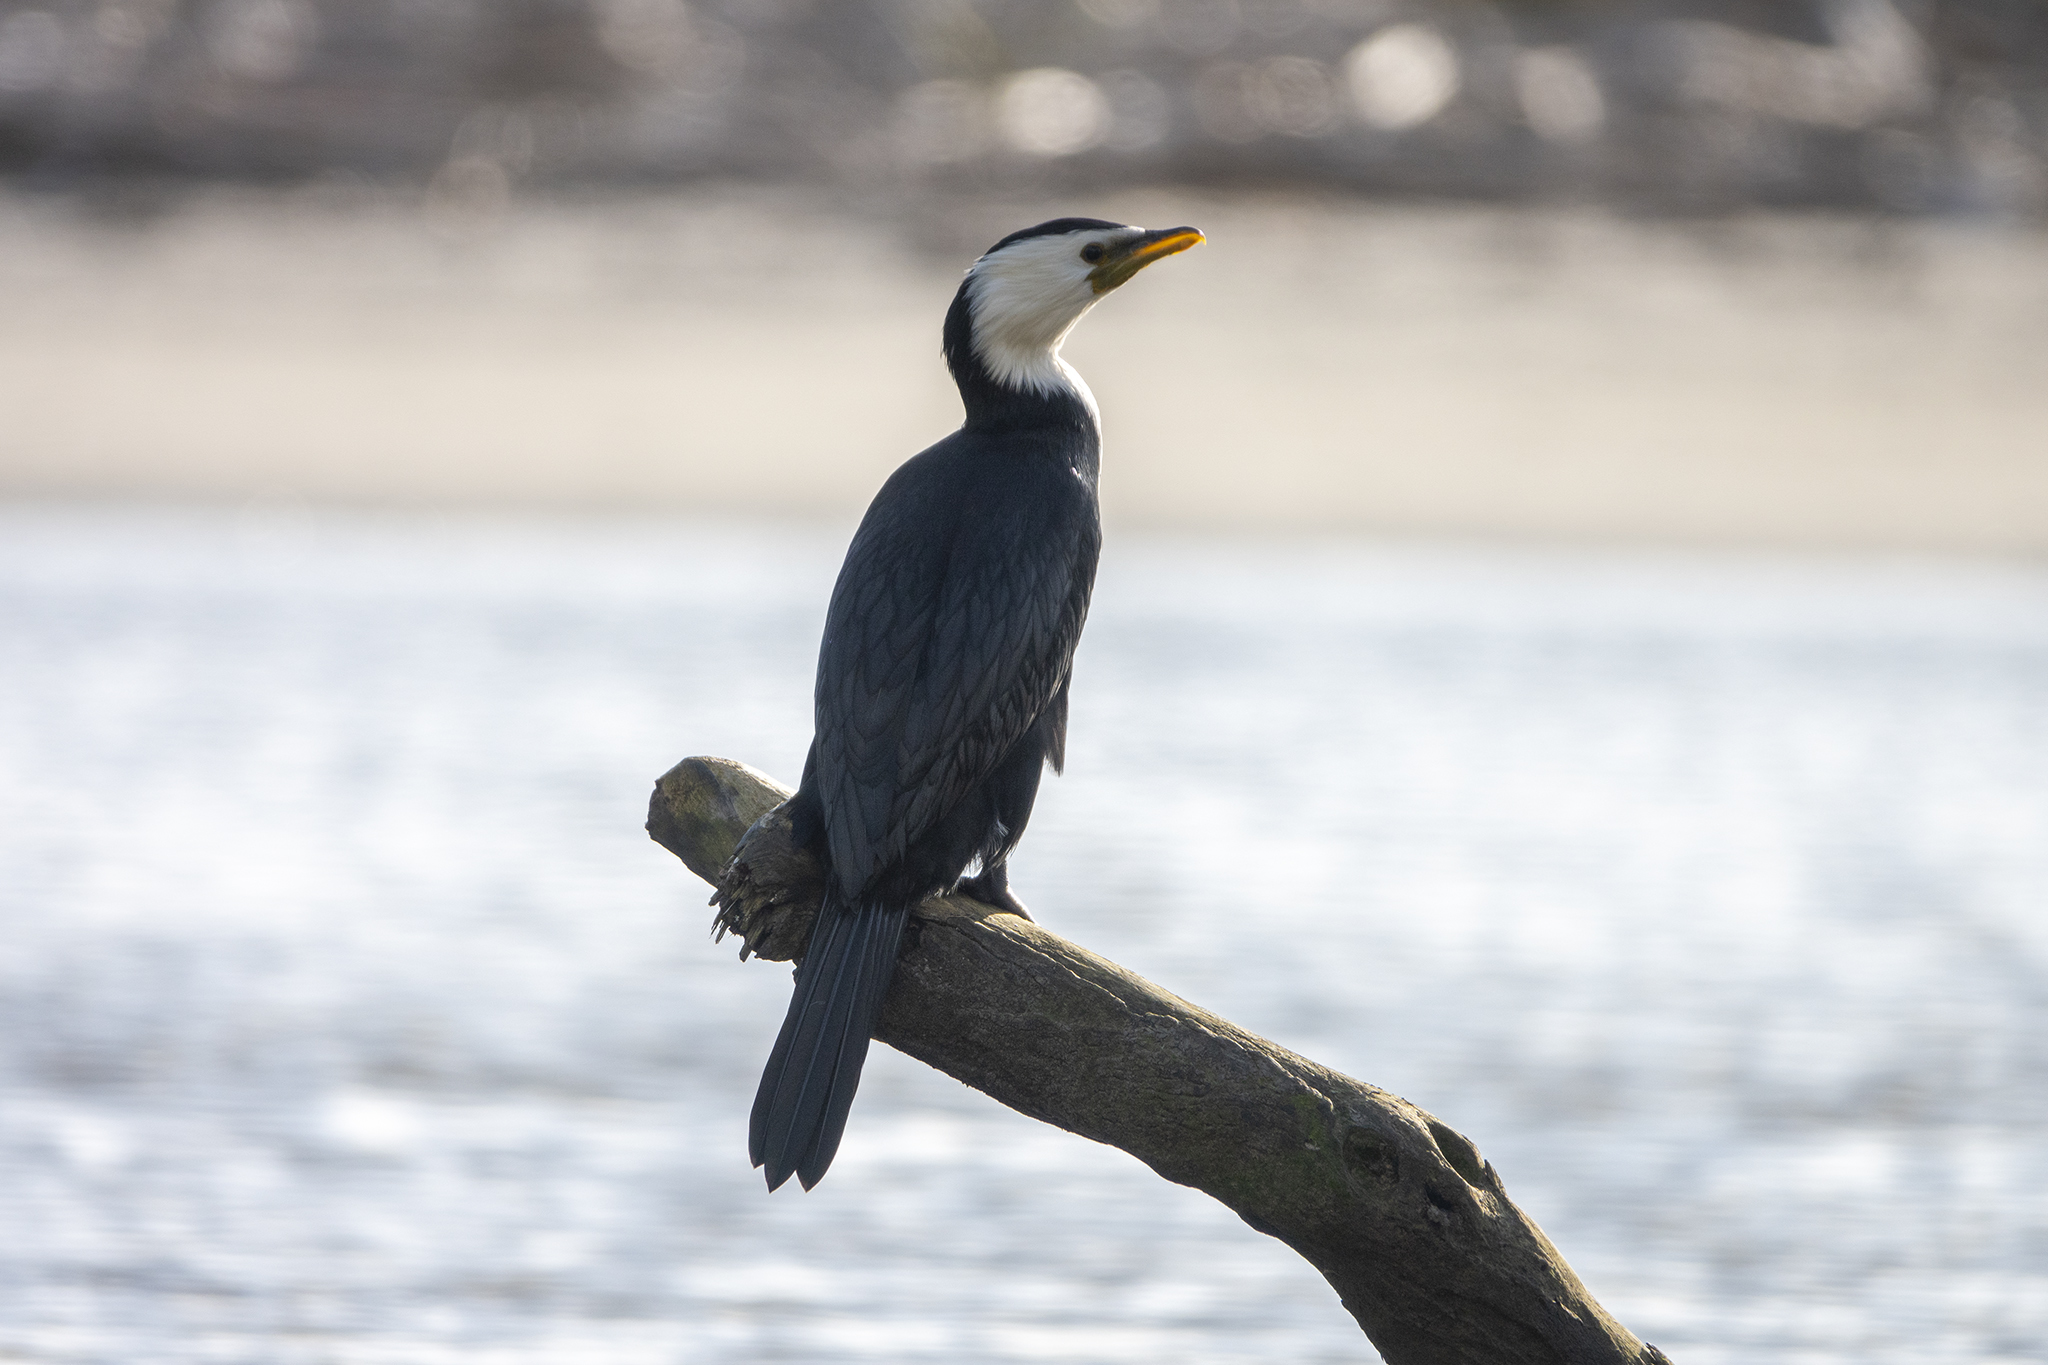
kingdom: Animalia
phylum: Chordata
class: Aves
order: Suliformes
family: Phalacrocoracidae
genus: Microcarbo
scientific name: Microcarbo melanoleucos
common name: Little pied cormorant
